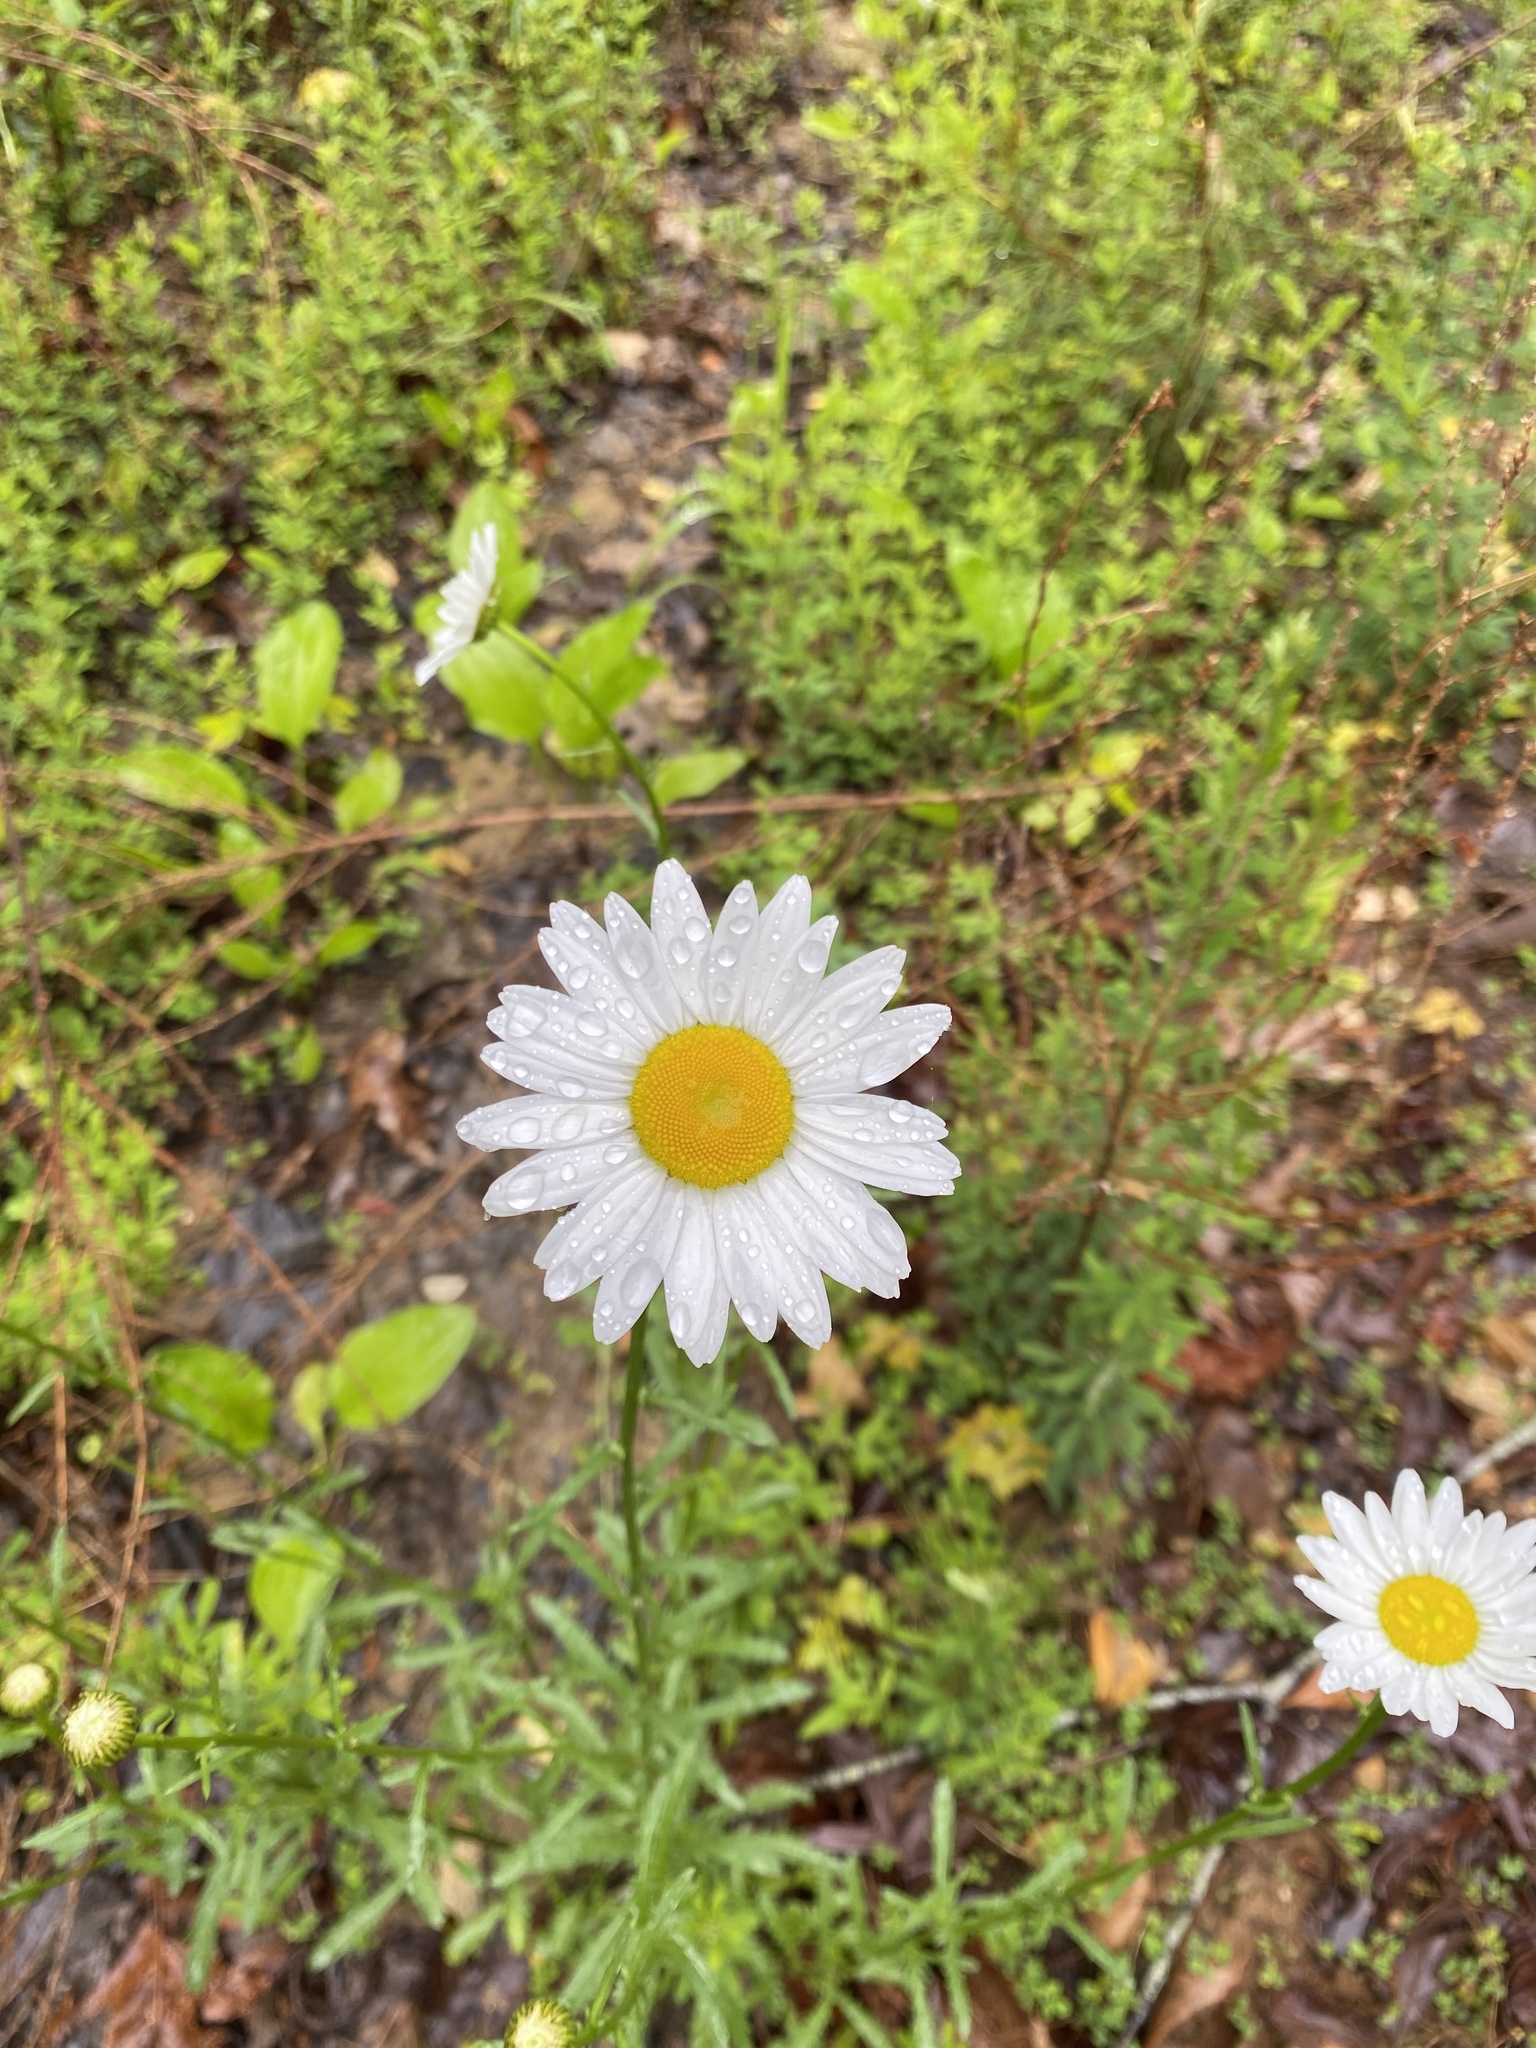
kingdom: Plantae
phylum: Tracheophyta
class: Magnoliopsida
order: Asterales
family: Asteraceae
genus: Leucanthemum
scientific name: Leucanthemum vulgare
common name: Oxeye daisy
